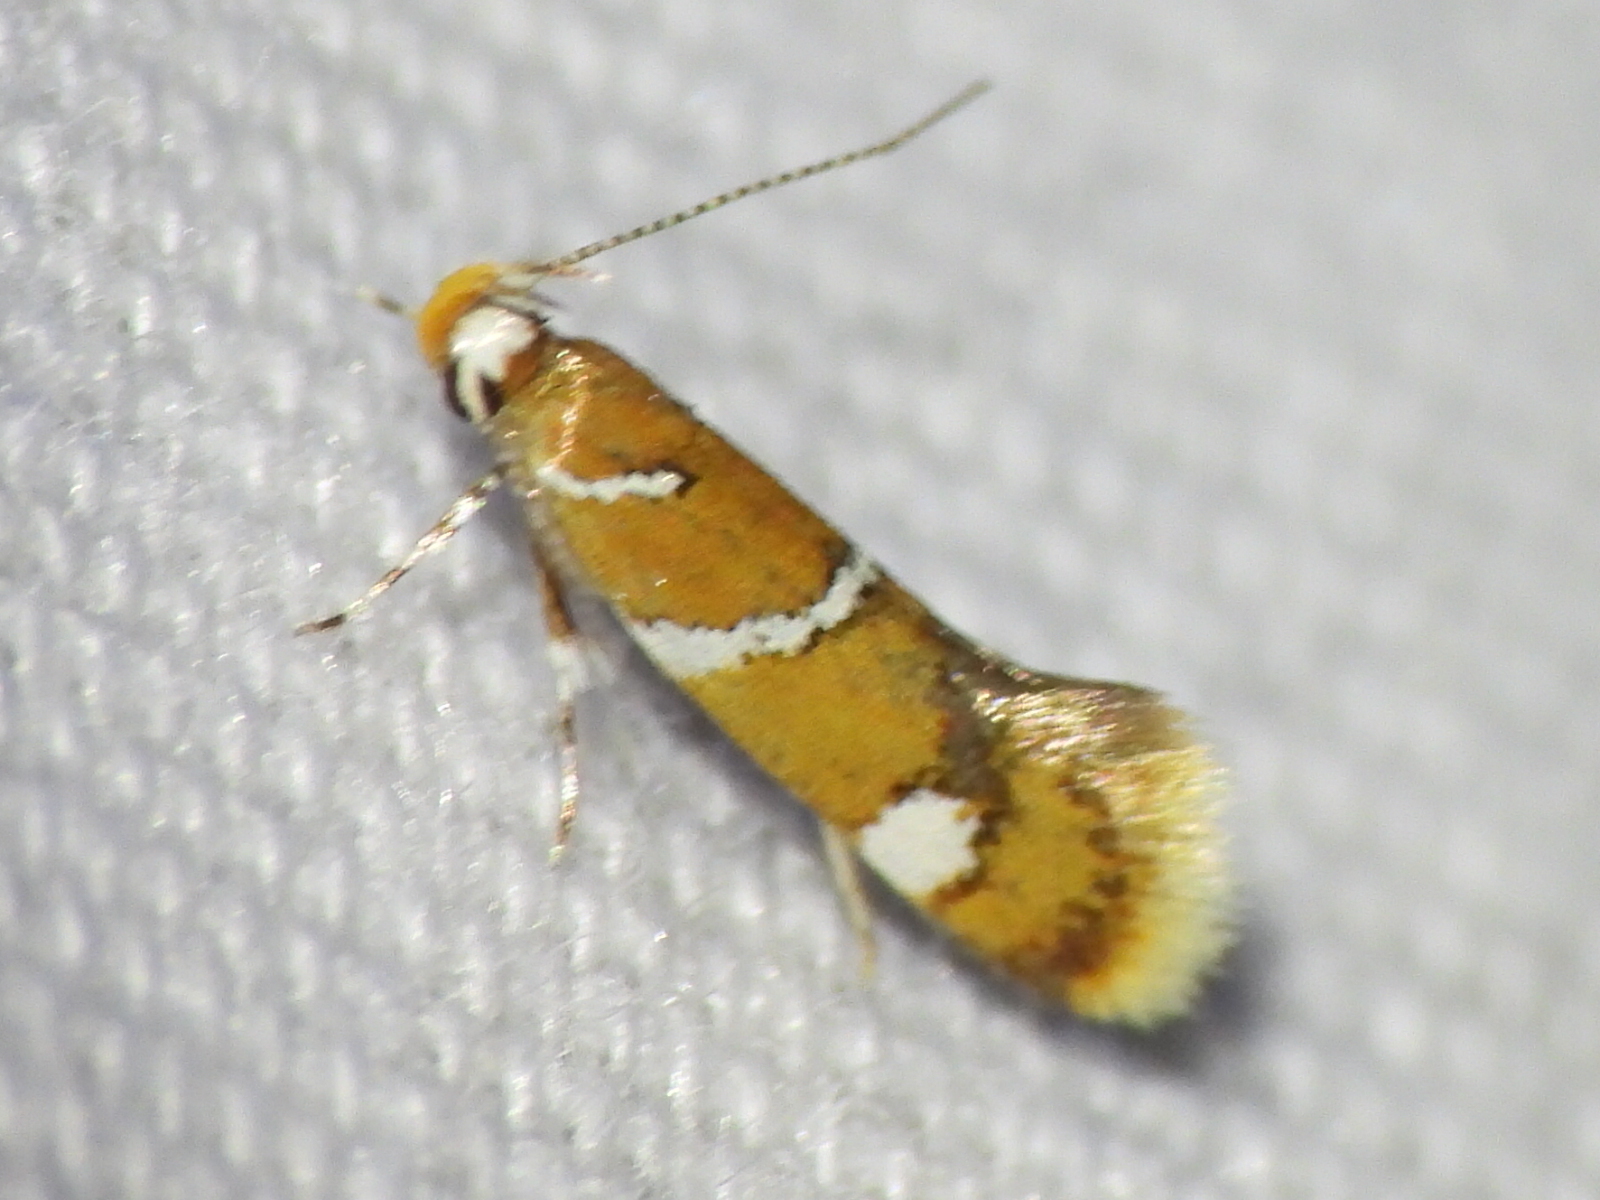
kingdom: Animalia
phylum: Arthropoda
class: Insecta
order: Lepidoptera
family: Oecophoridae
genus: Promalactis
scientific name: Promalactis suzukiella
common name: Moth
